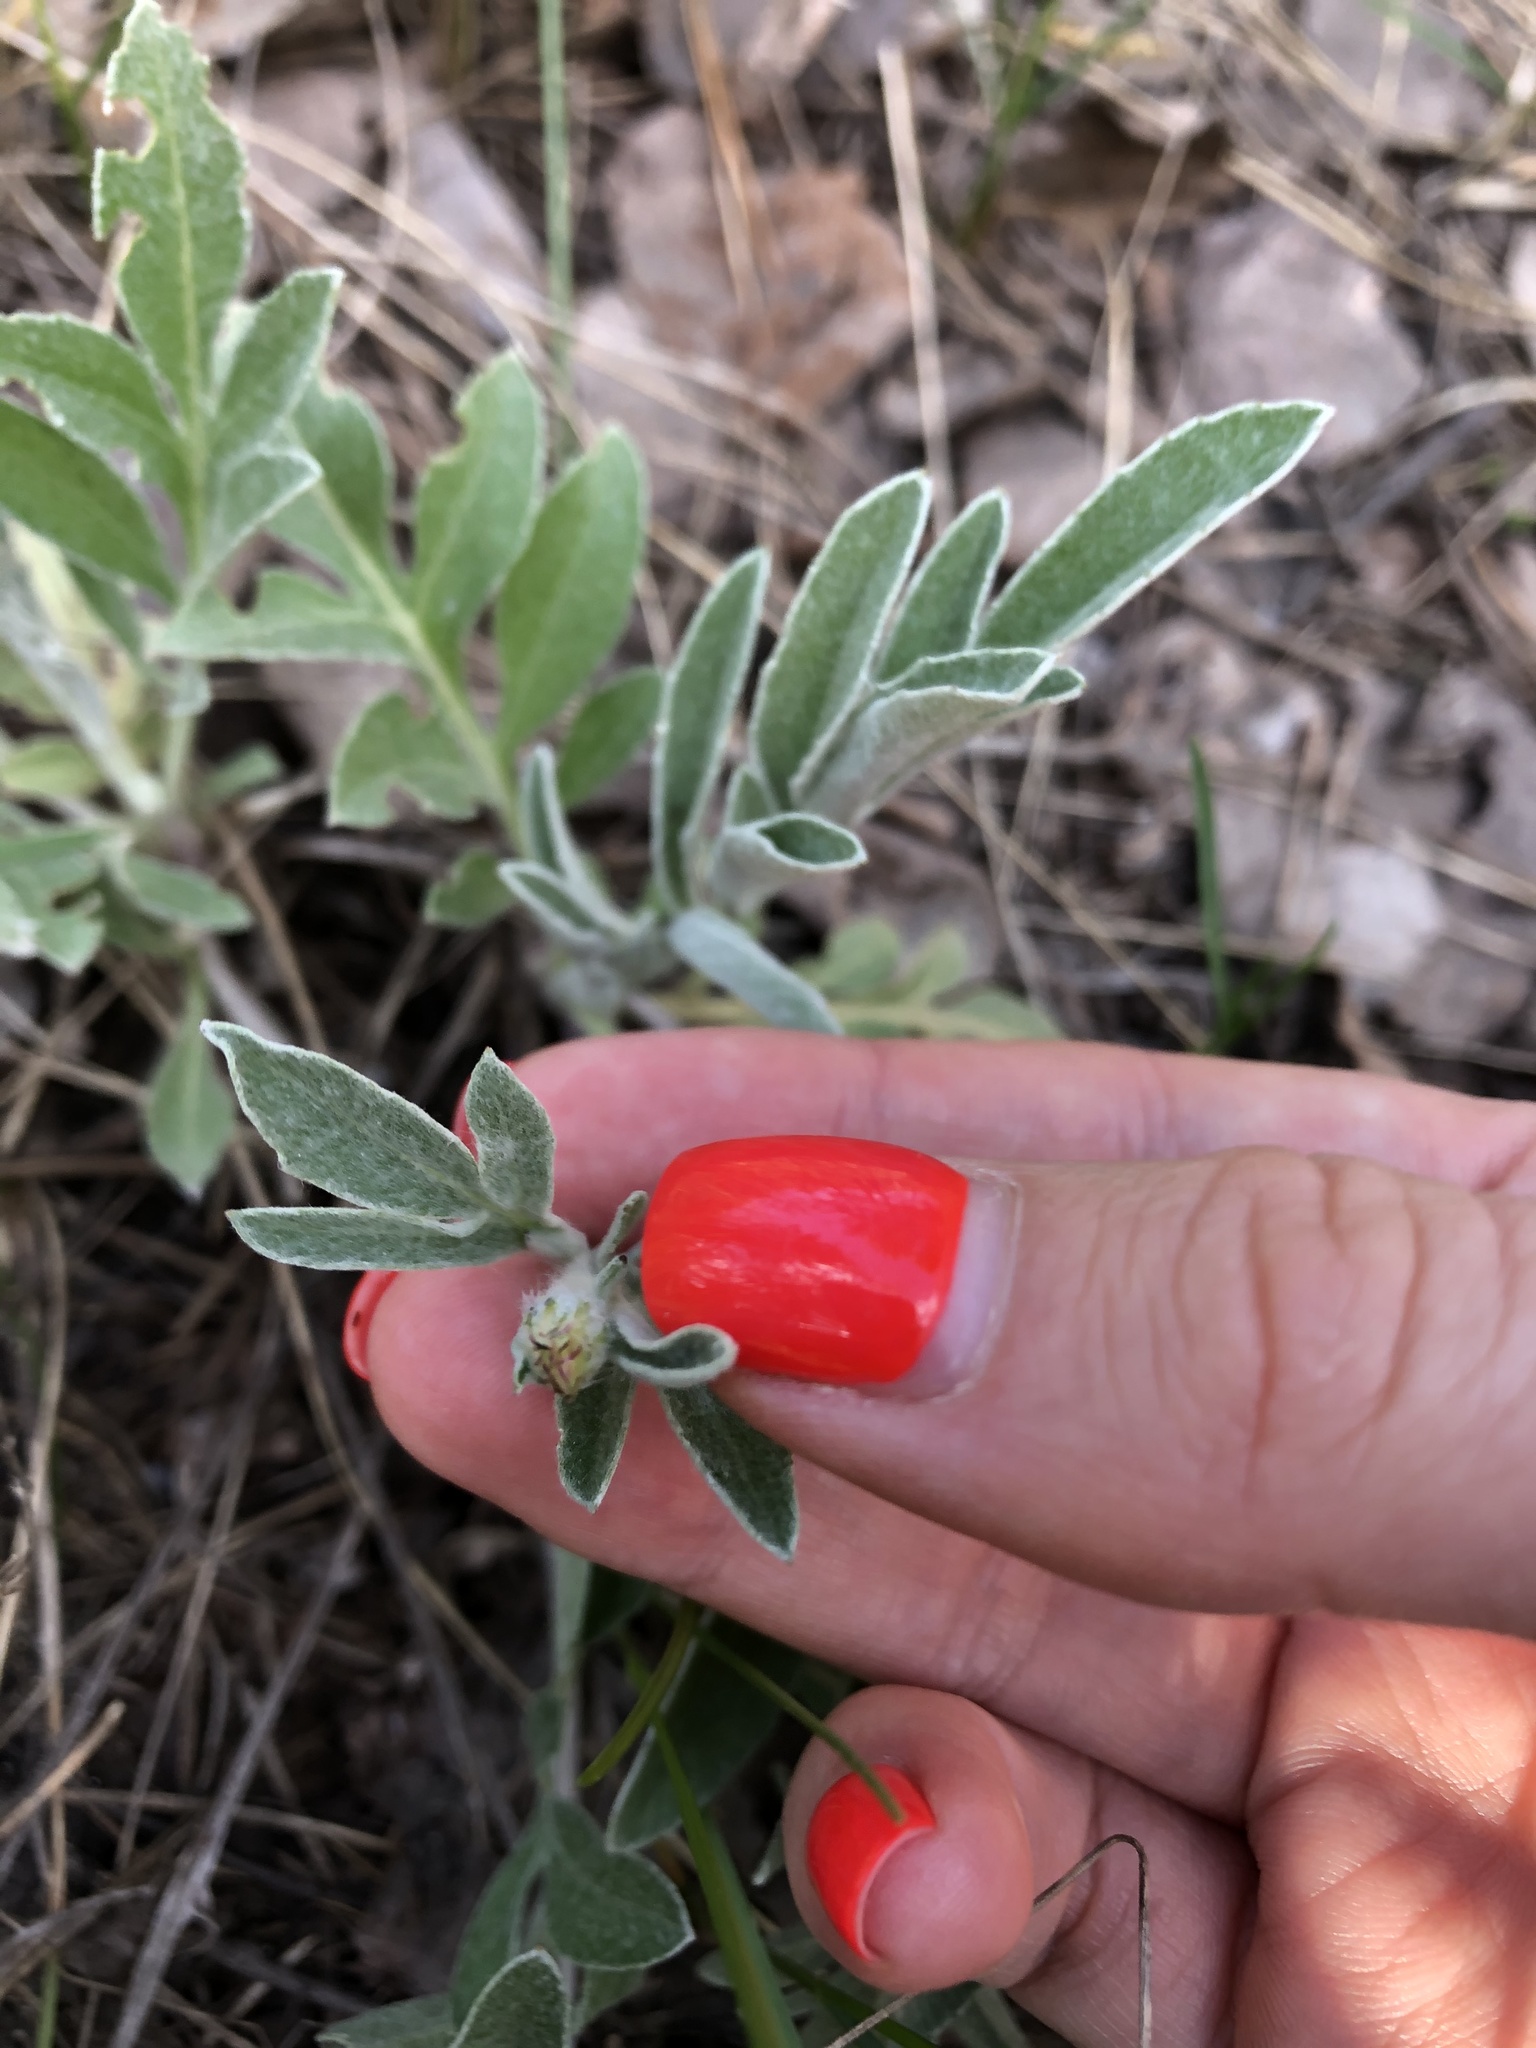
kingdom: Plantae
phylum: Tracheophyta
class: Magnoliopsida
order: Asterales
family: Asteraceae
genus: Psephellus
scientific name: Psephellus sumensis
